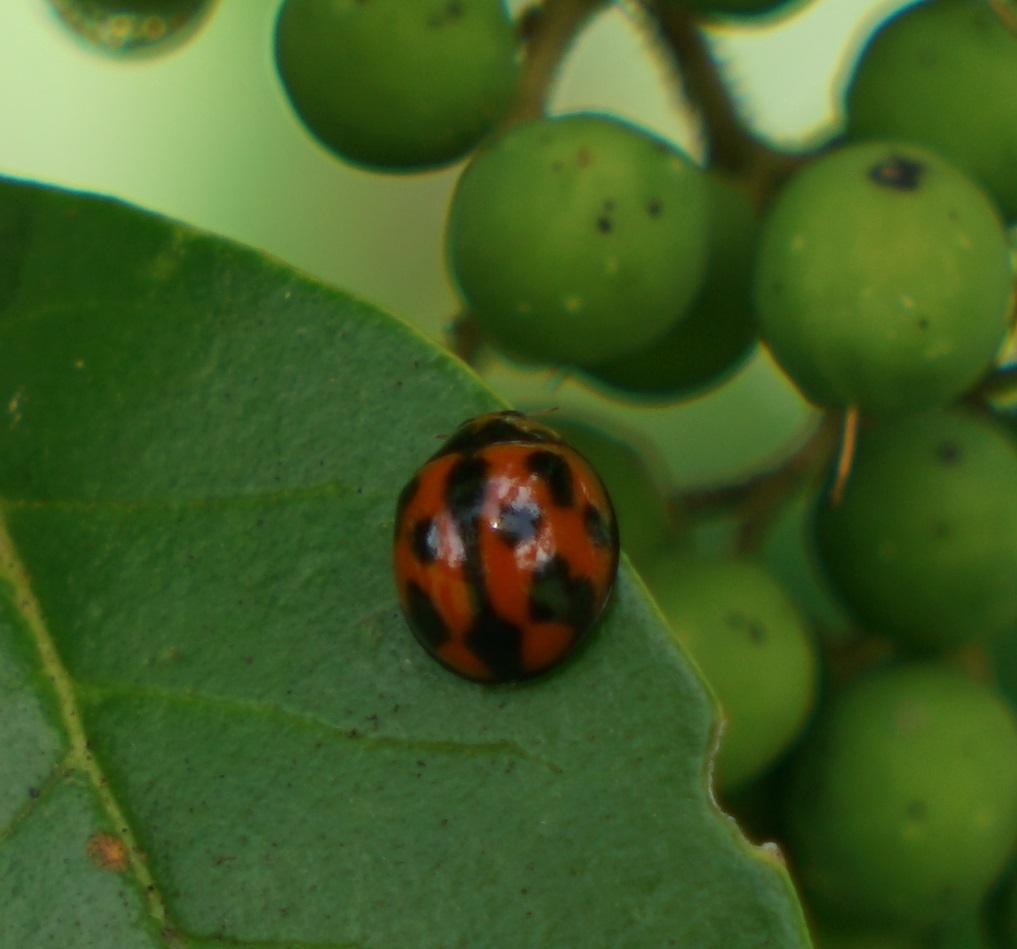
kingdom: Animalia
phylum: Arthropoda
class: Insecta
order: Coleoptera
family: Coccinellidae
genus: Coelophora
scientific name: Coelophora inaequalis
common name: Common australian lady beetle
